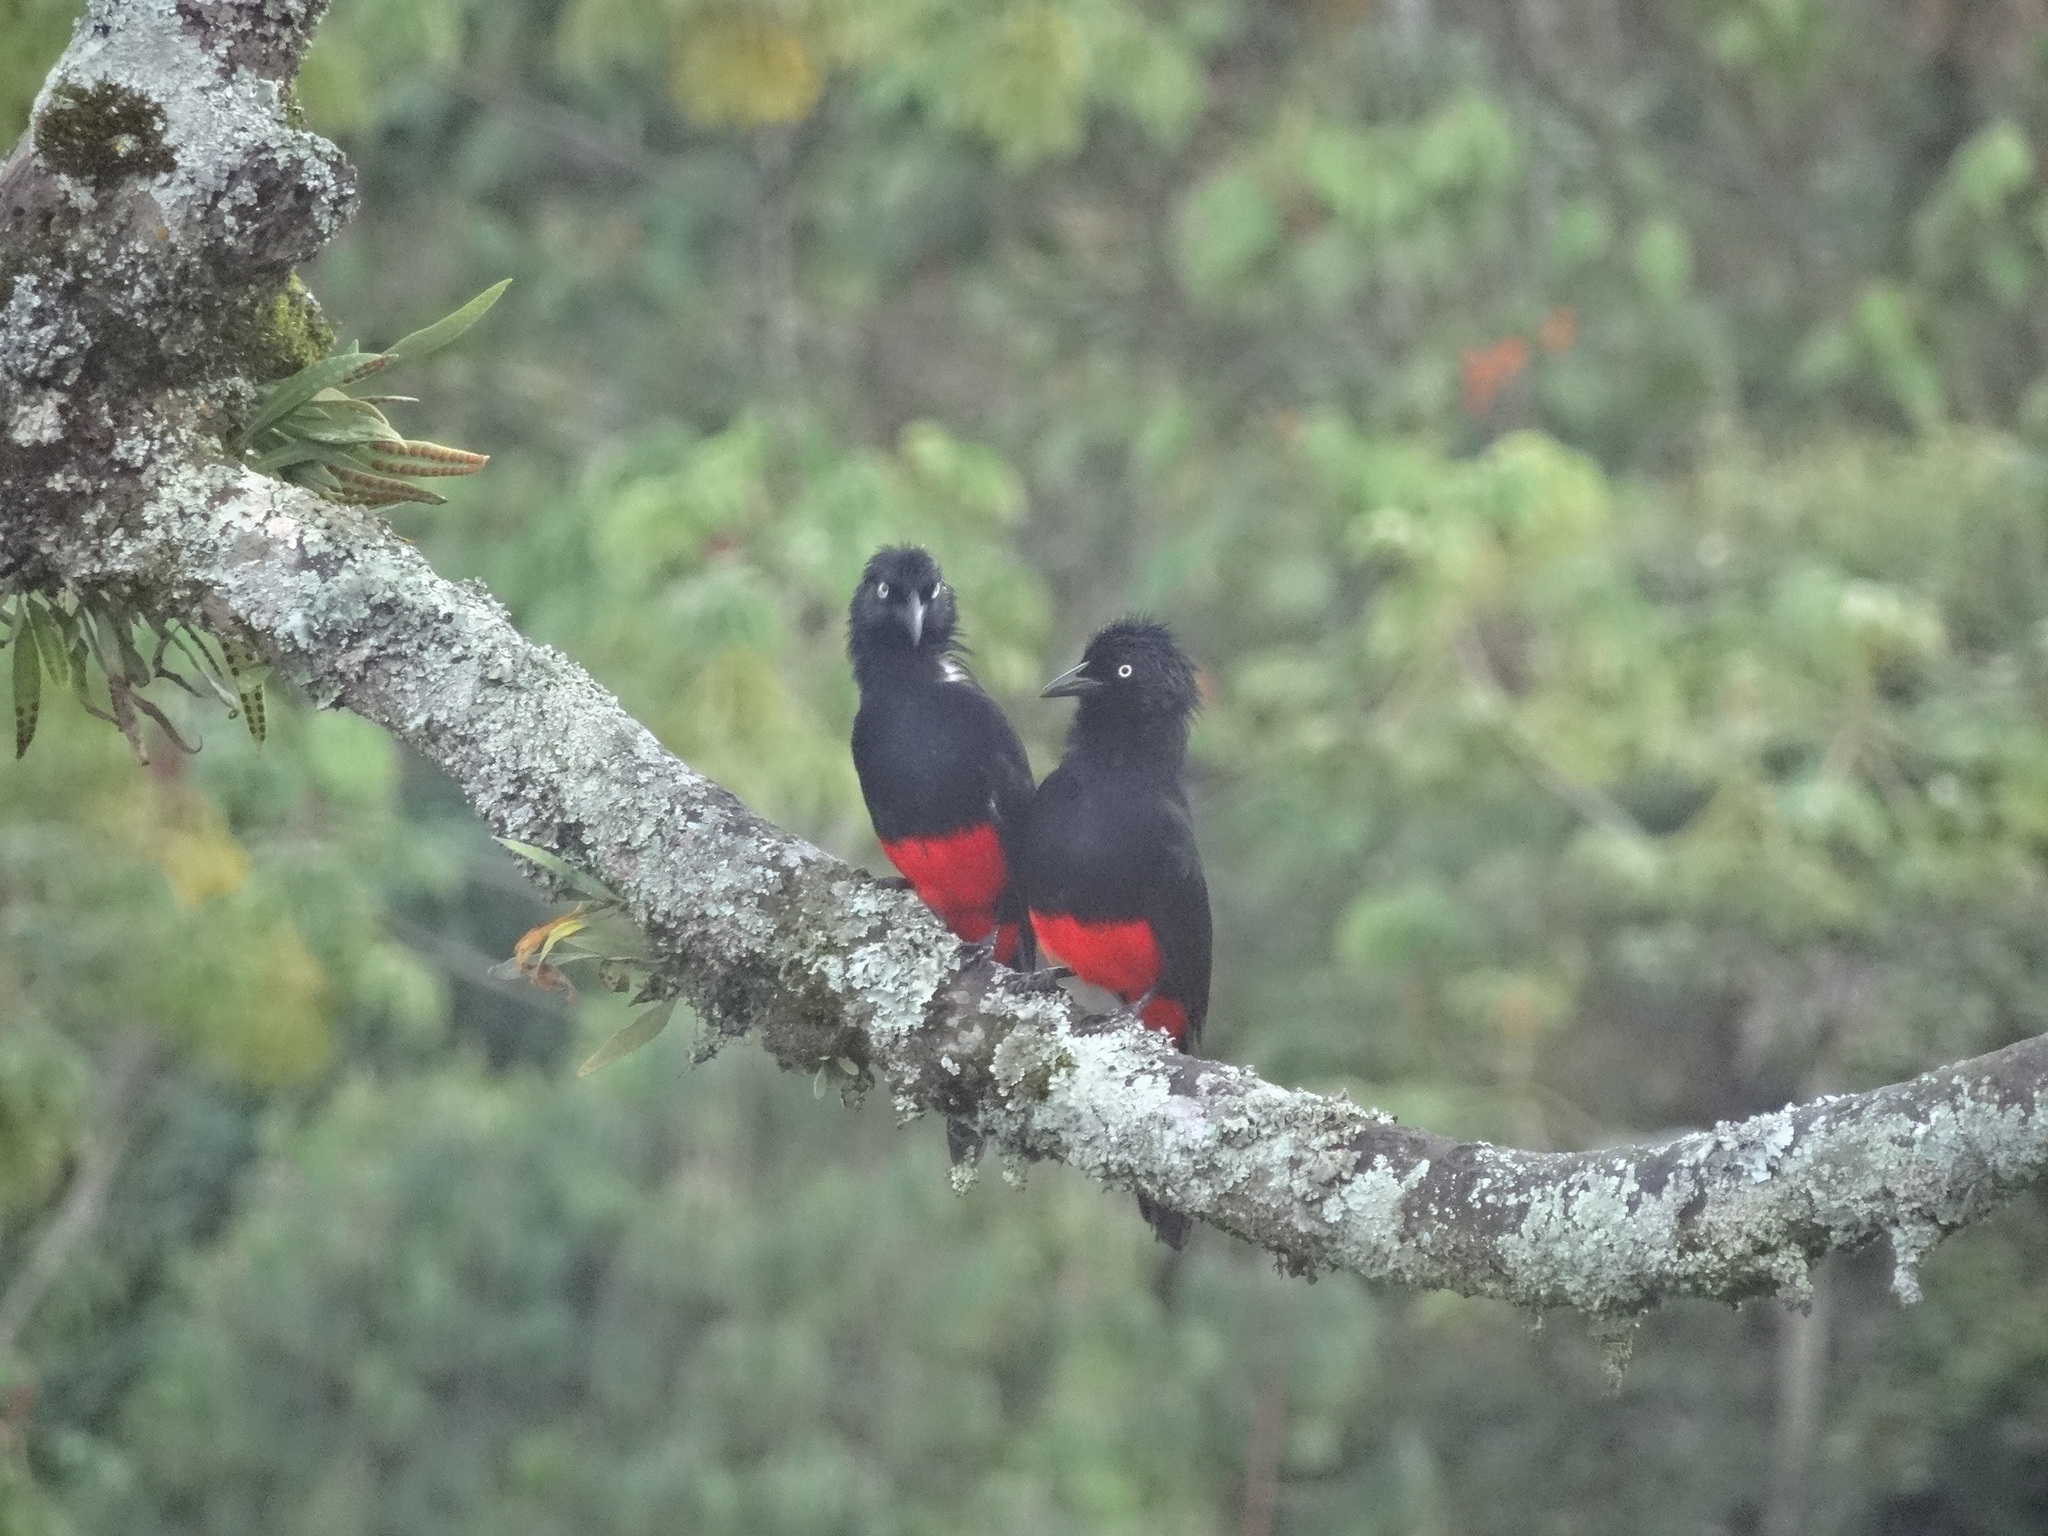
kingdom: Animalia
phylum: Chordata
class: Aves
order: Passeriformes
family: Icteridae
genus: Hypopyrrhus
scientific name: Hypopyrrhus pyrohypogaster
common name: Red-bellied grackle
